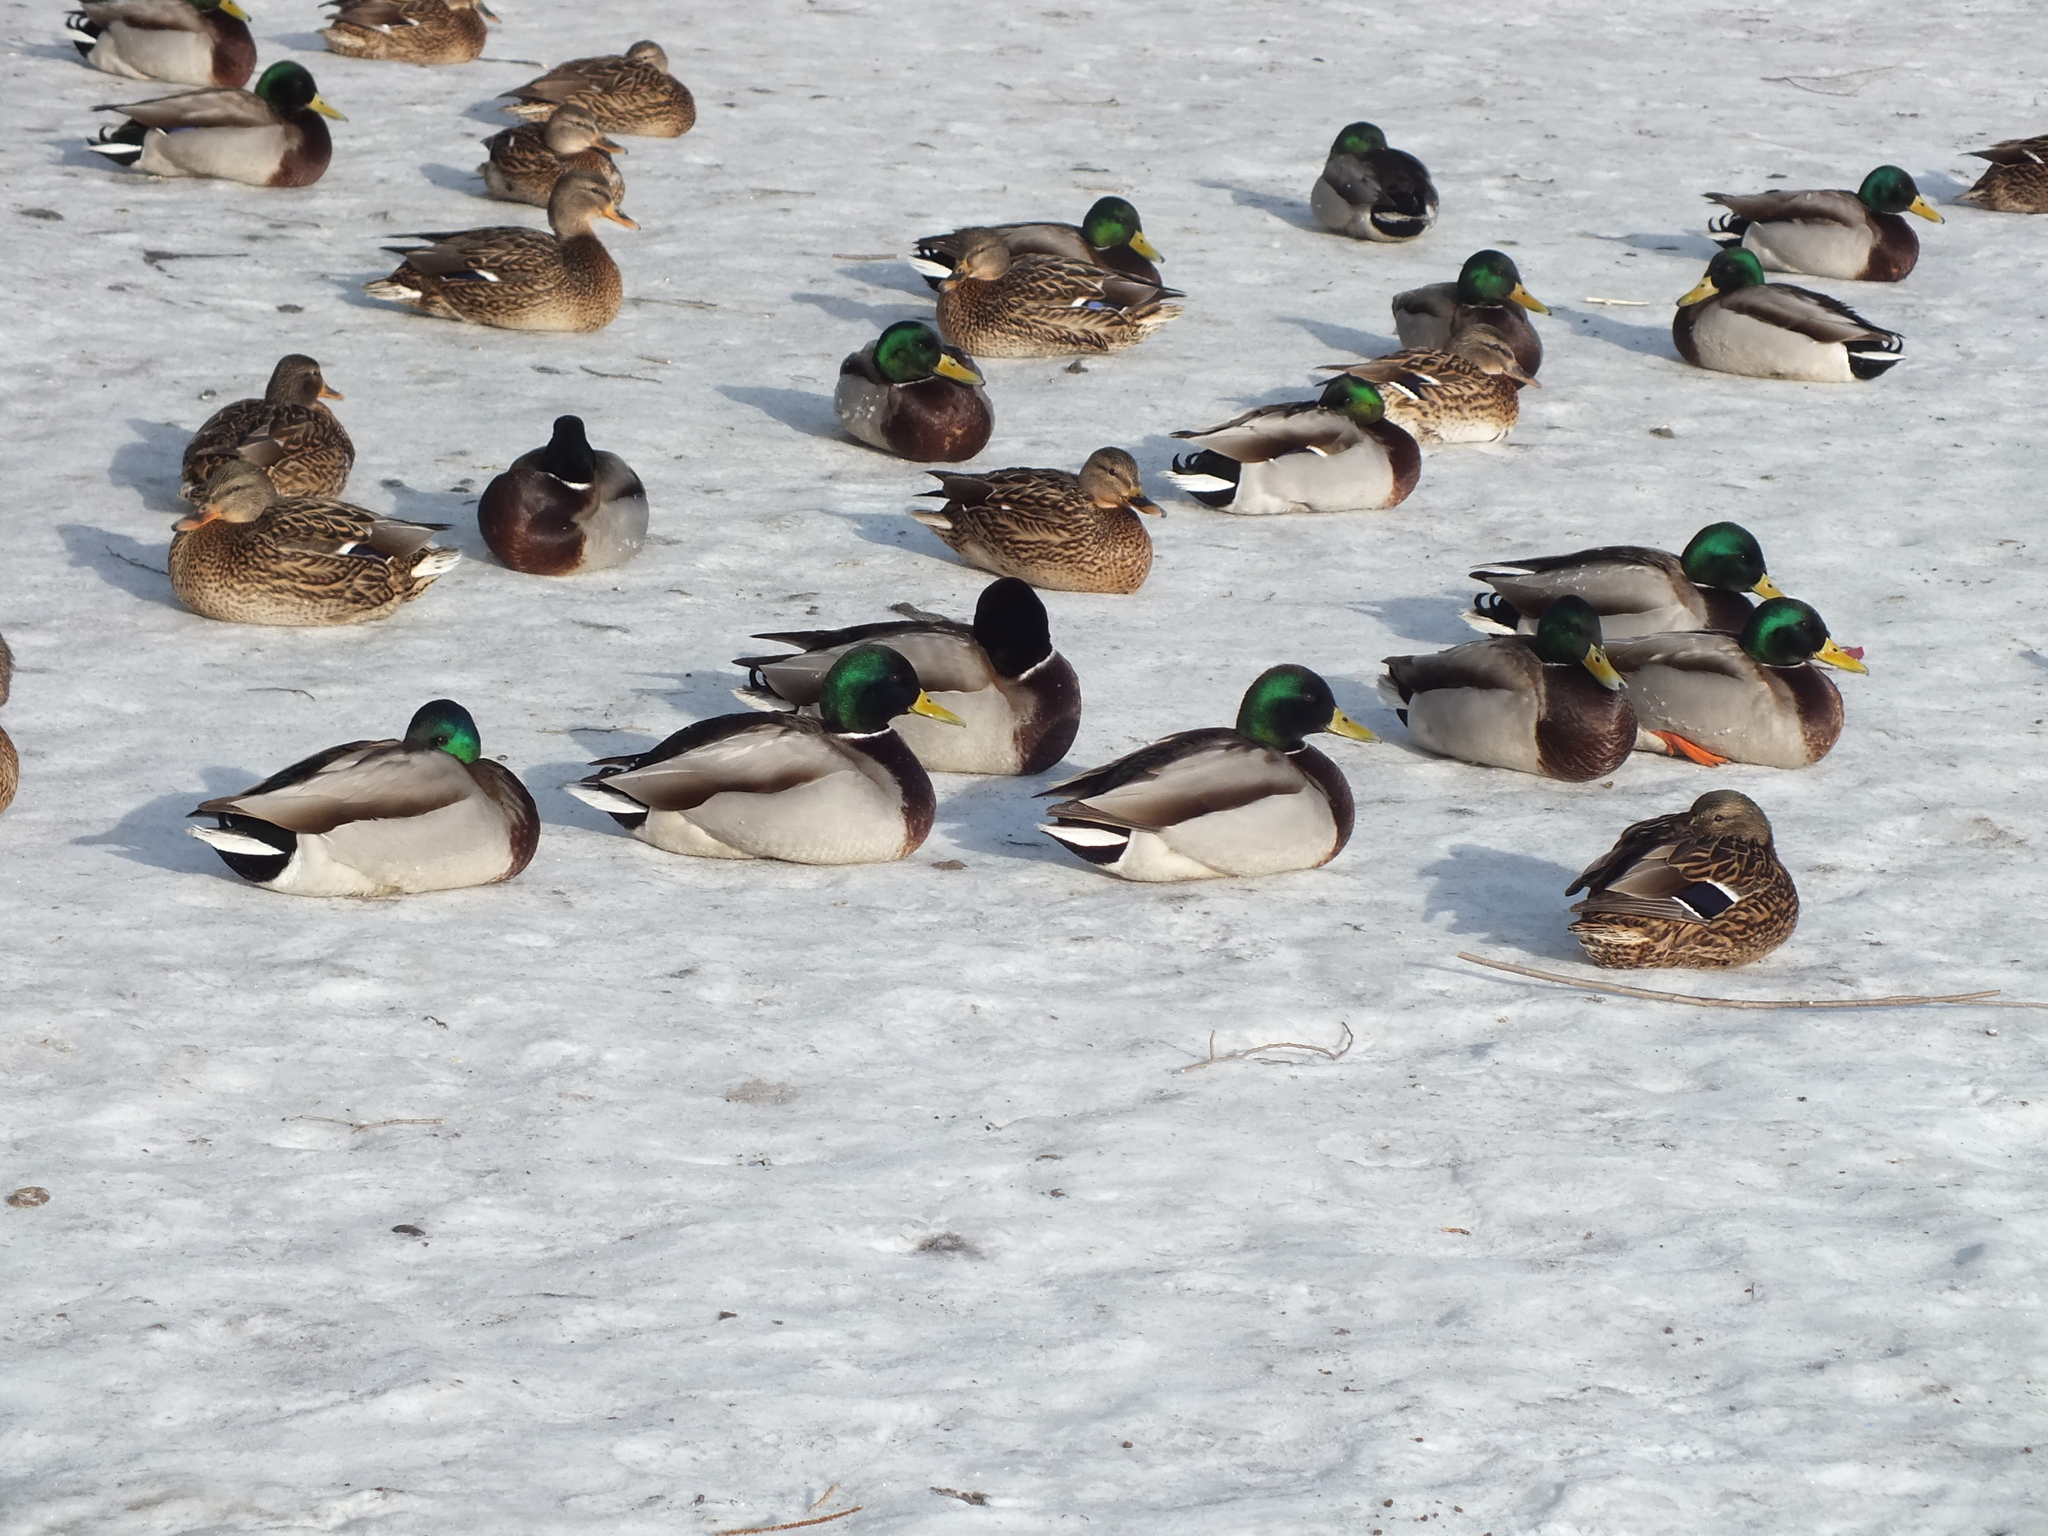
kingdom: Animalia
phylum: Chordata
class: Aves
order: Anseriformes
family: Anatidae
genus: Anas
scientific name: Anas platyrhynchos
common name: Mallard
